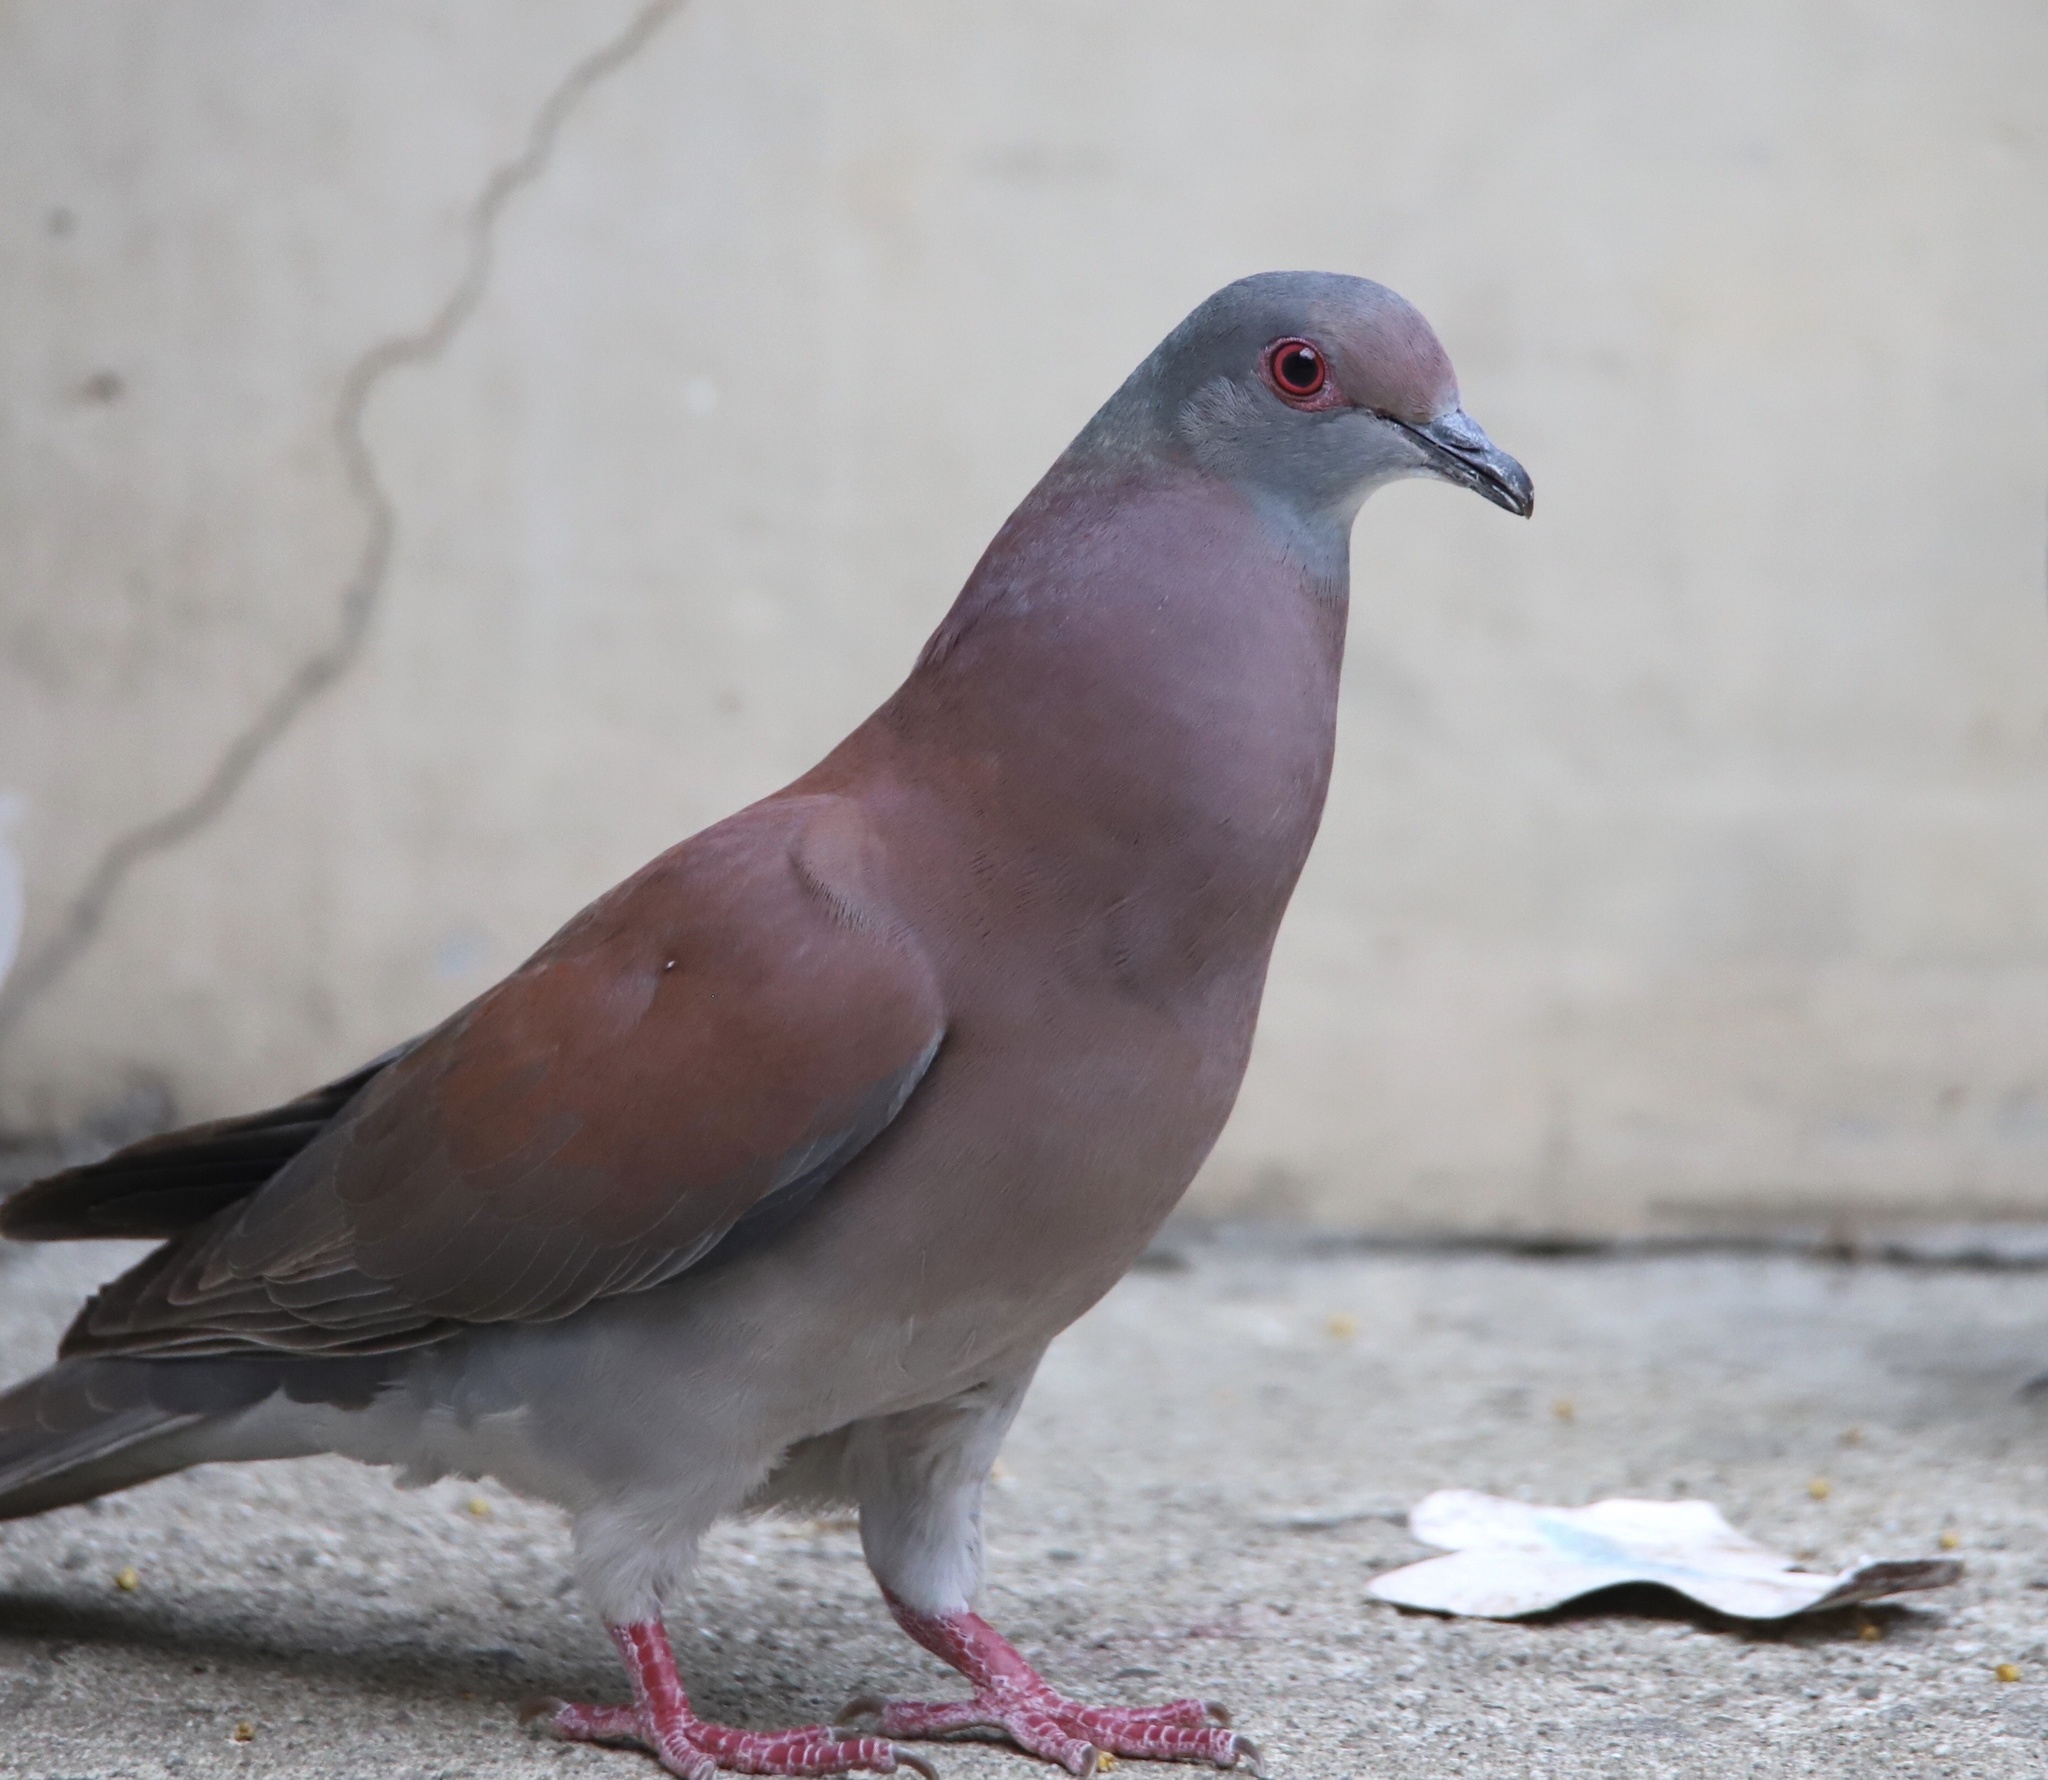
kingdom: Animalia
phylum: Chordata
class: Aves
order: Columbiformes
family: Columbidae
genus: Patagioenas
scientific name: Patagioenas cayennensis
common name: Pale-vented pigeon
